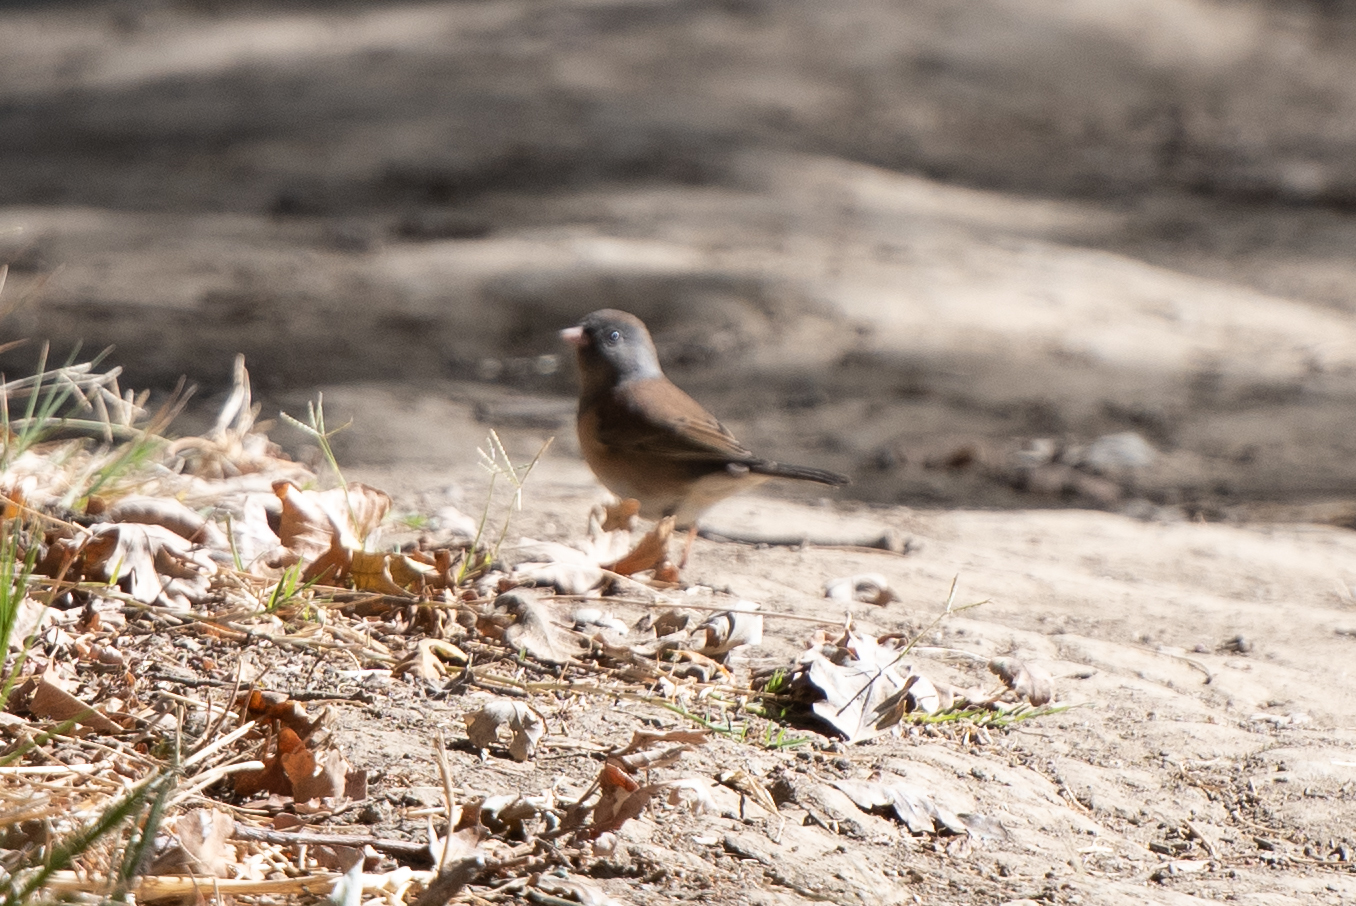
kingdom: Animalia
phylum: Chordata
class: Aves
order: Passeriformes
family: Passerellidae
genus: Junco
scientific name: Junco hyemalis
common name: Dark-eyed junco
